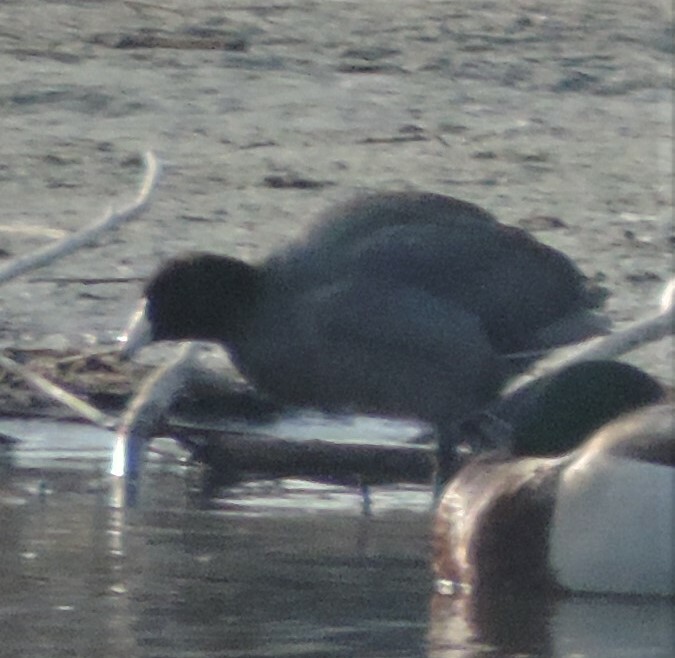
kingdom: Animalia
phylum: Chordata
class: Aves
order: Gruiformes
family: Rallidae
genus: Fulica
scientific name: Fulica americana
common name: American coot
